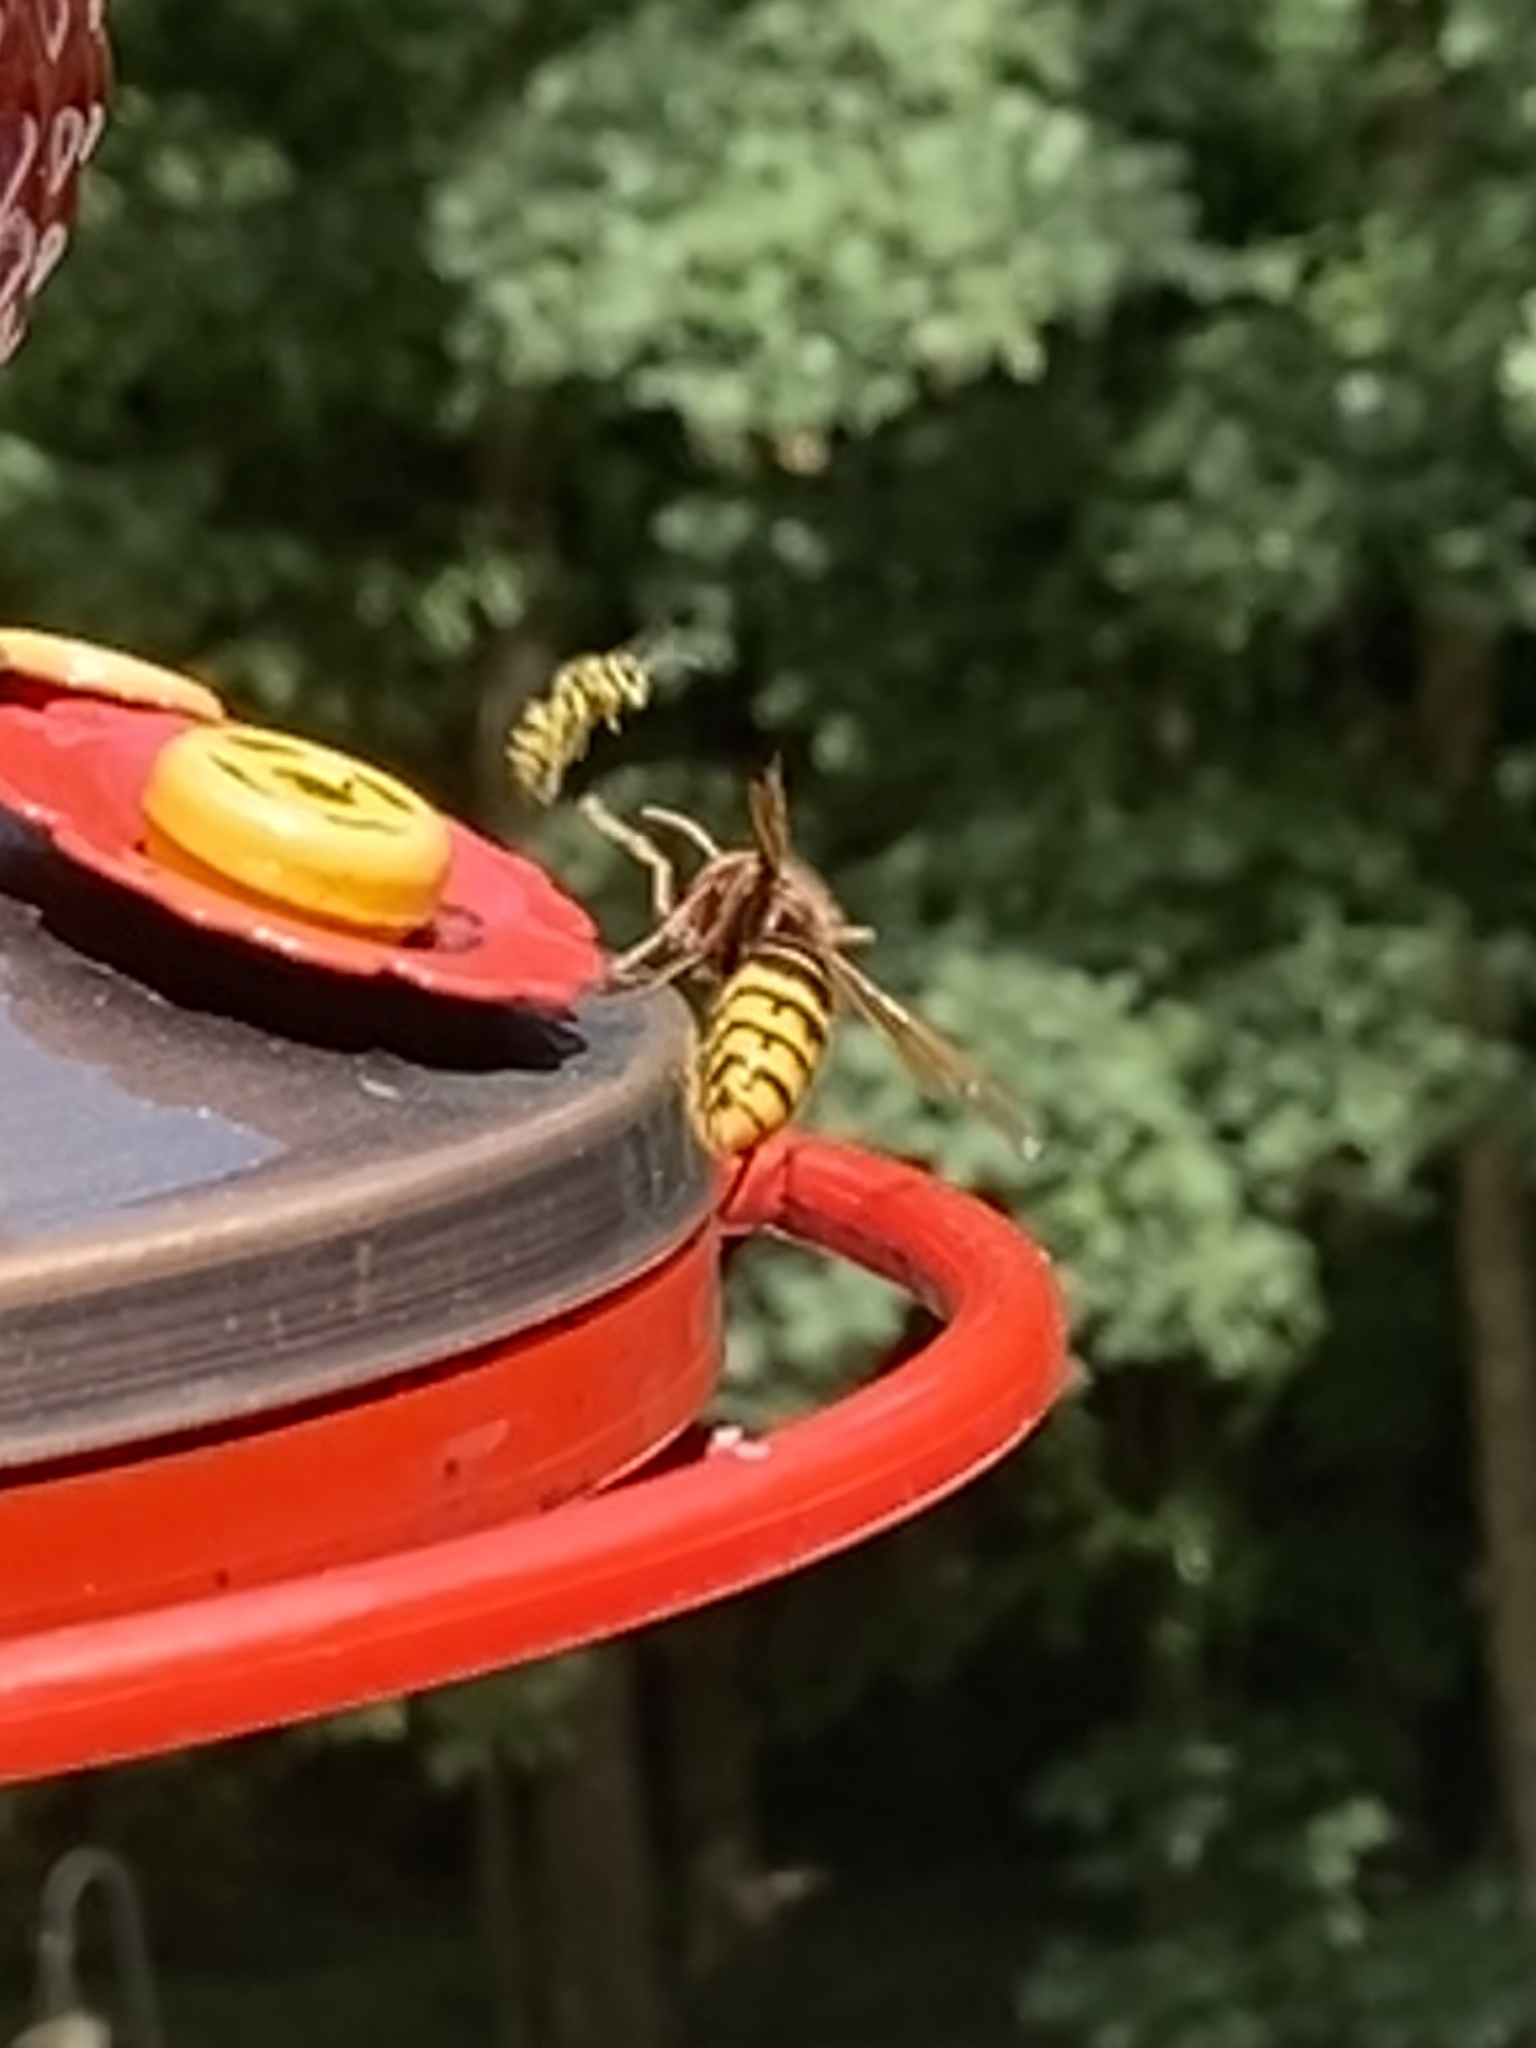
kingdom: Animalia
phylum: Arthropoda
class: Insecta
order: Hymenoptera
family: Vespidae
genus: Vespa
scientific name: Vespa crabro
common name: Hornet
